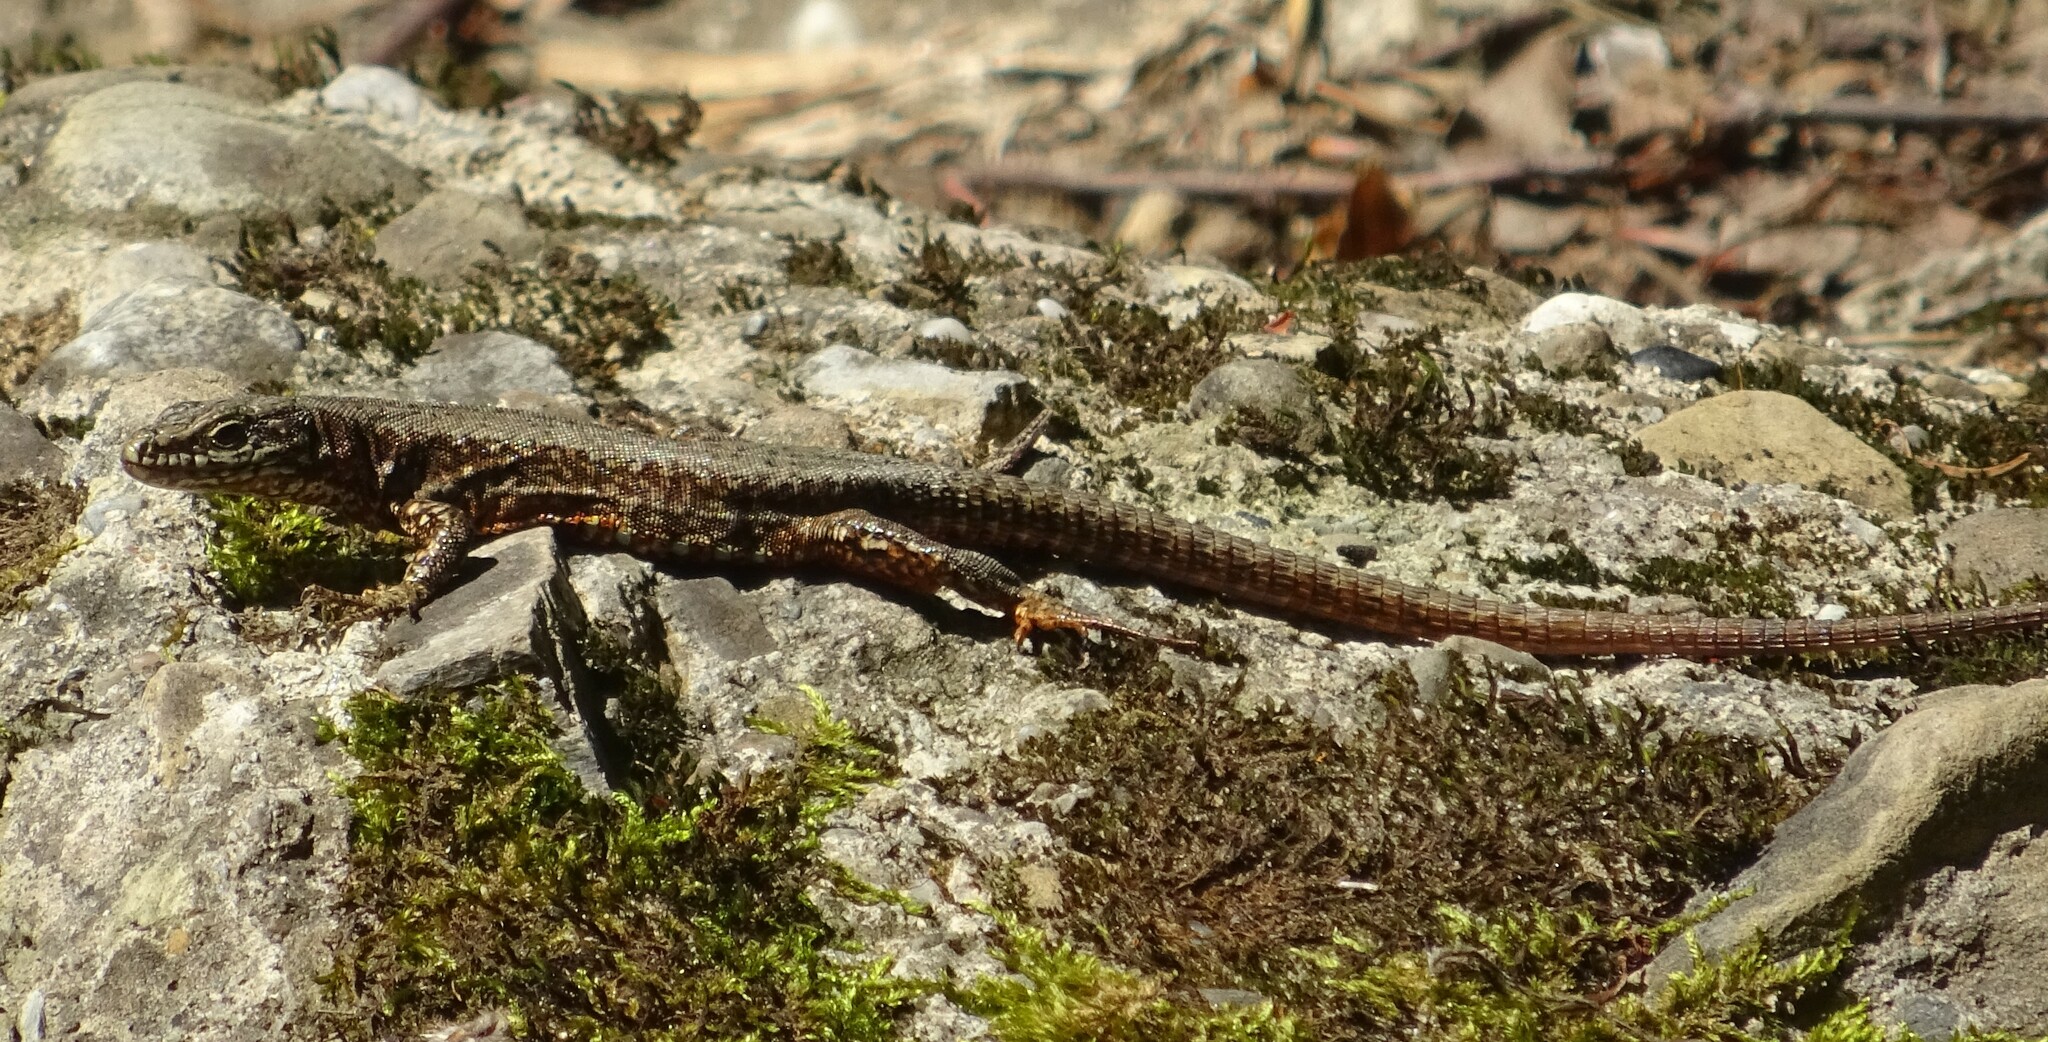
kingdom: Animalia
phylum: Chordata
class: Squamata
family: Lacertidae
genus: Podarcis
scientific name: Podarcis muralis
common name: Common wall lizard
